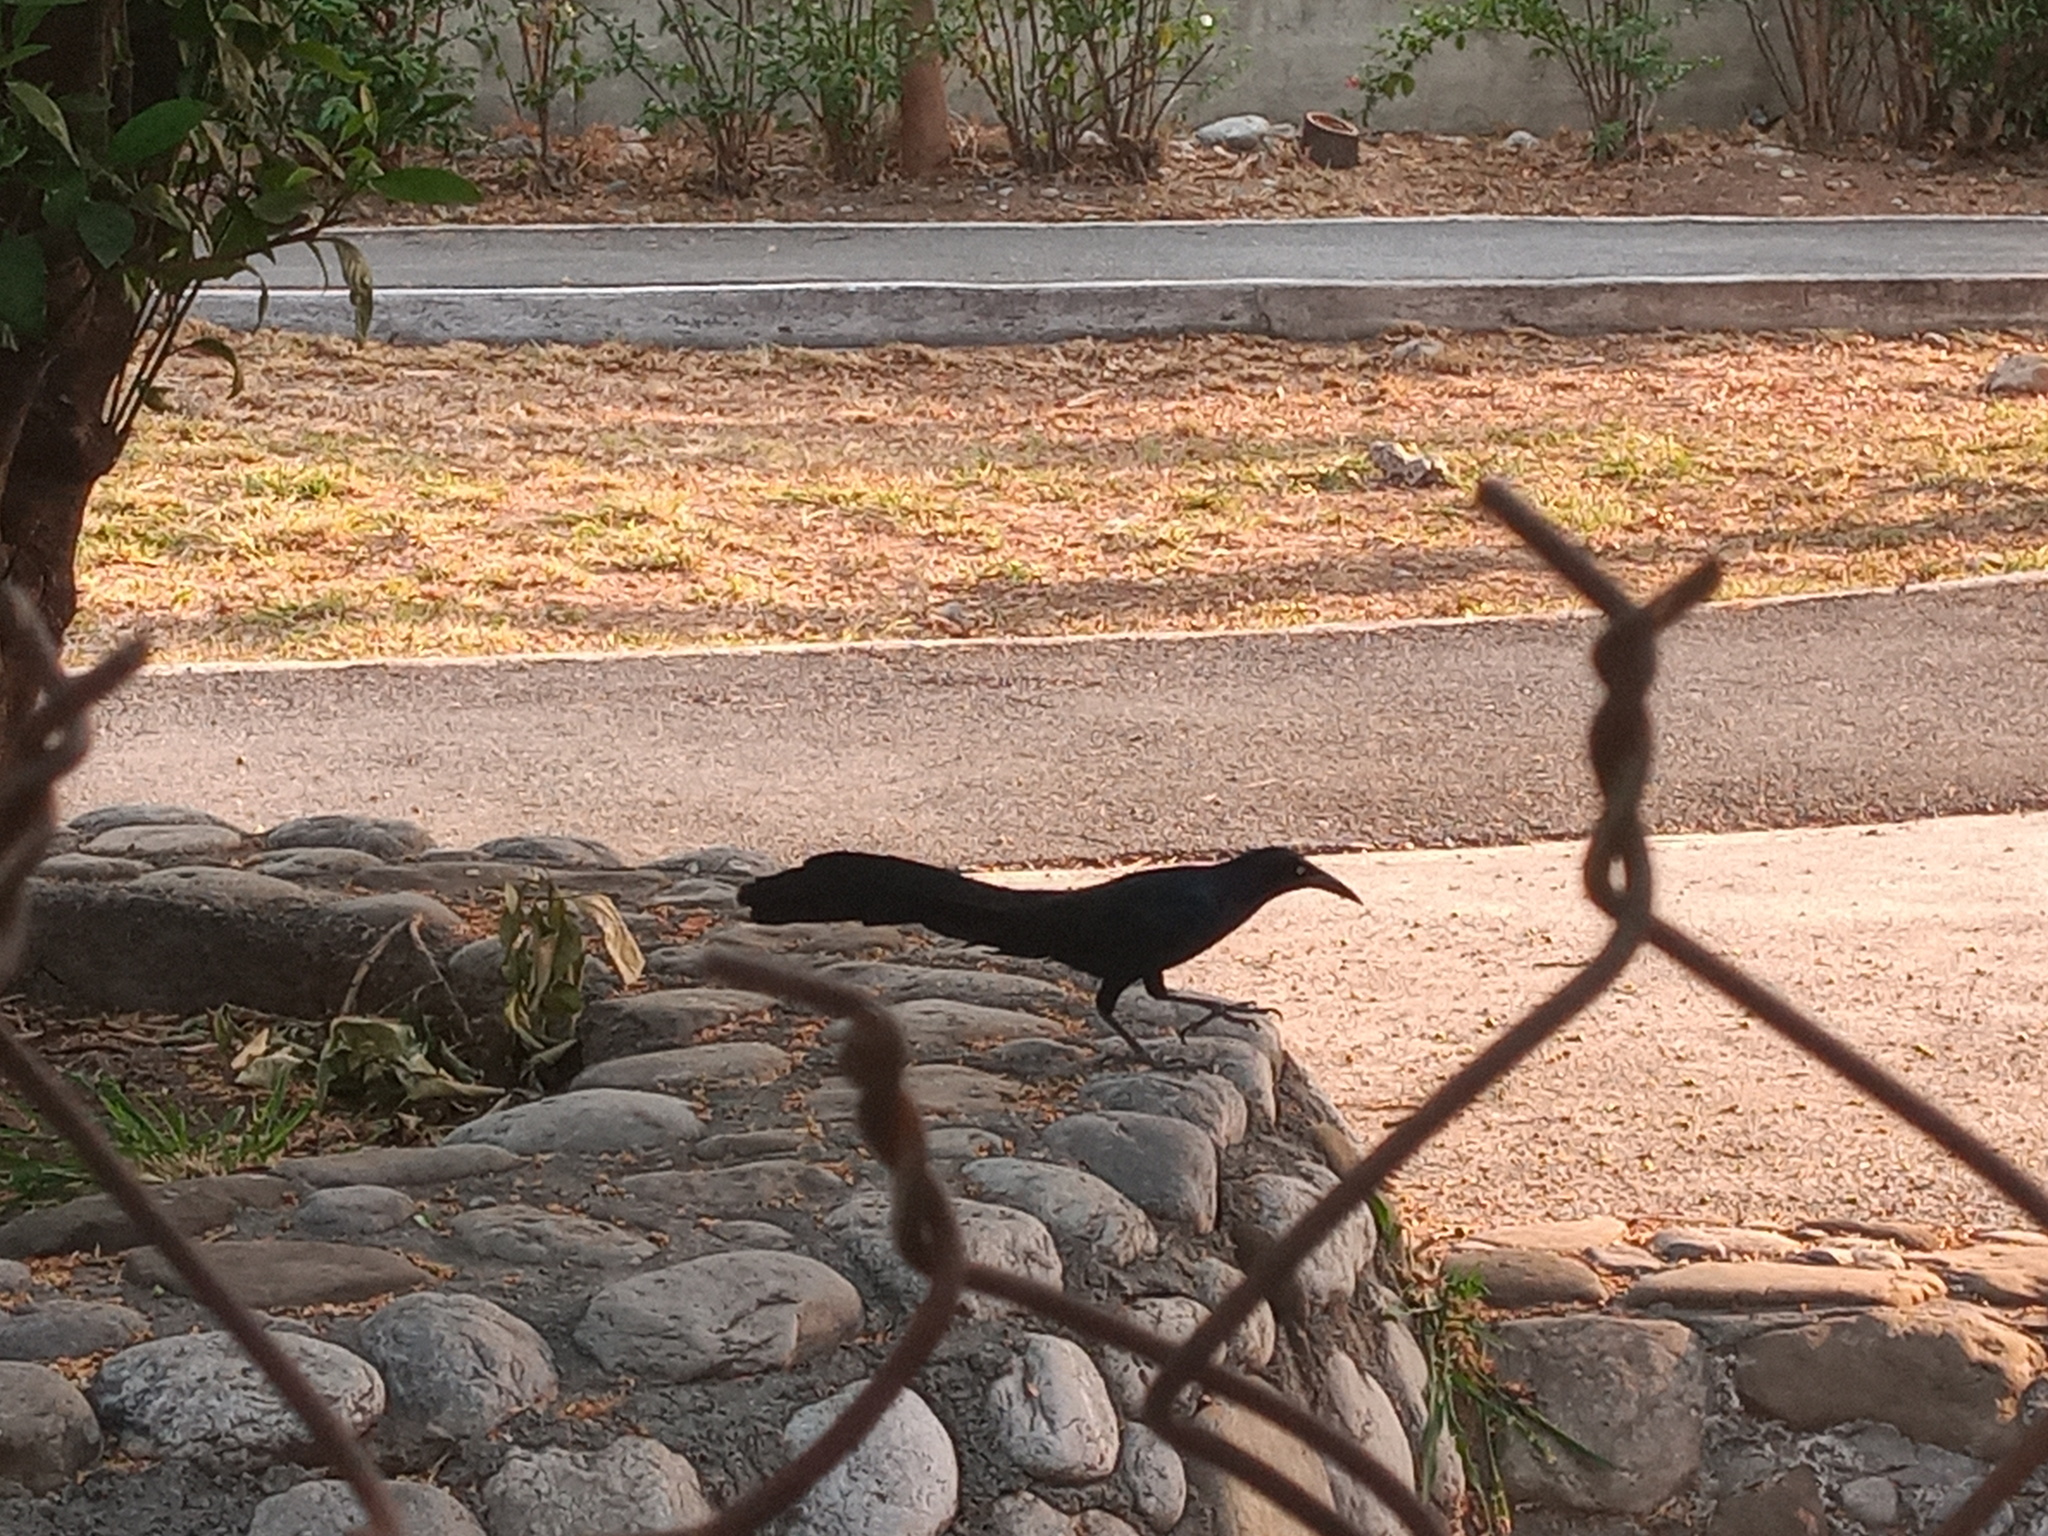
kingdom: Animalia
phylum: Chordata
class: Aves
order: Passeriformes
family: Icteridae
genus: Quiscalus
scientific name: Quiscalus mexicanus
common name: Great-tailed grackle
